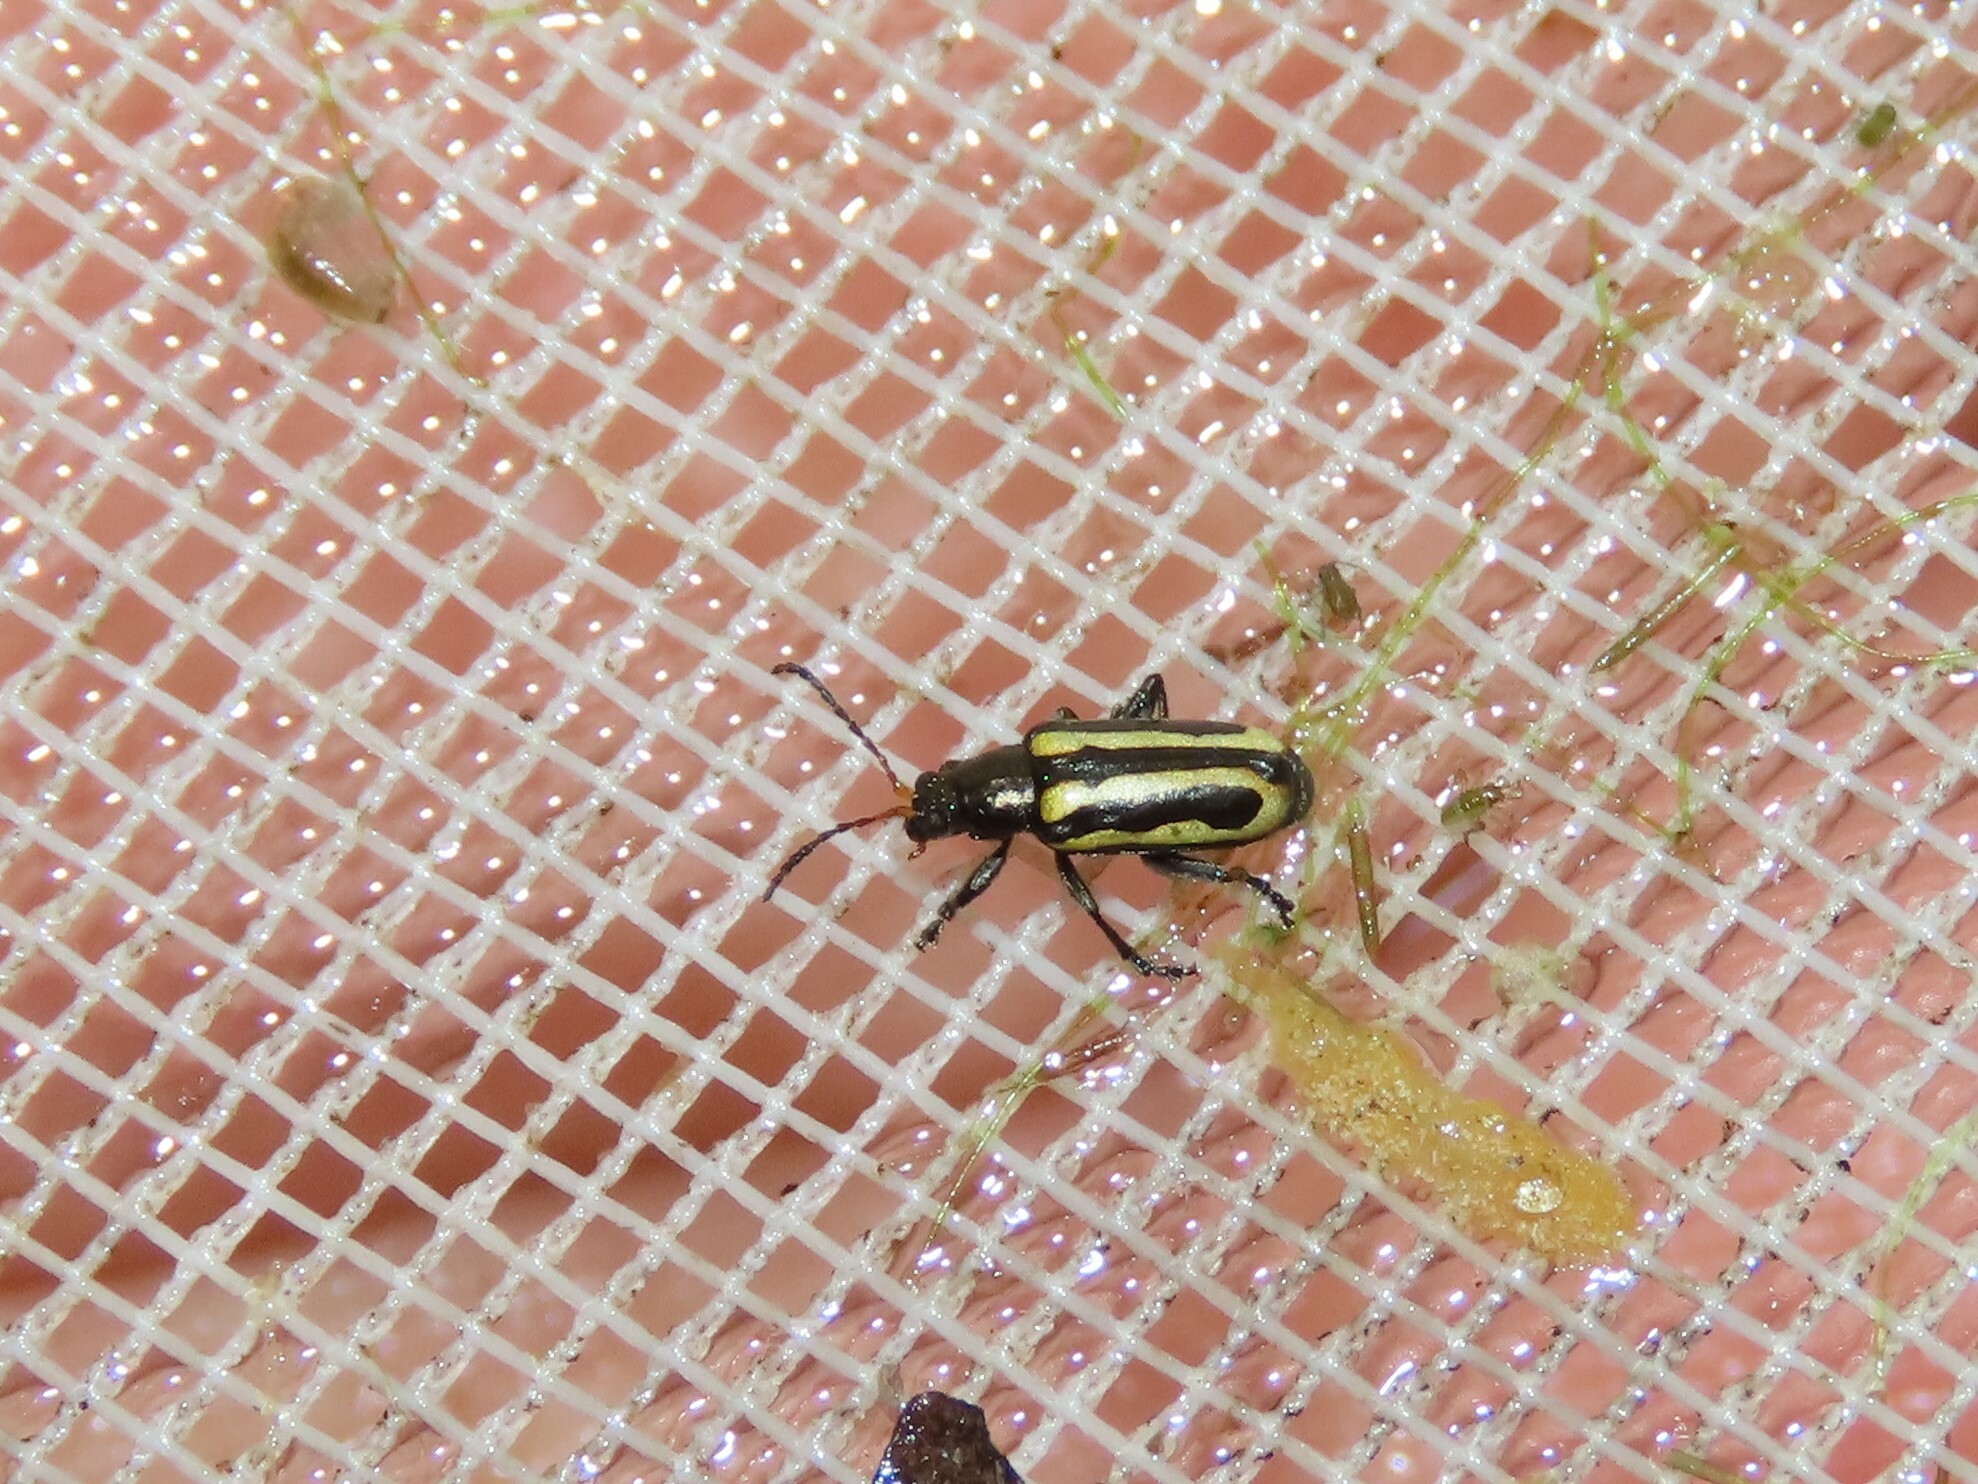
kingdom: Animalia
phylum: Arthropoda
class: Insecta
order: Coleoptera
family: Chrysomelidae
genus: Agasicles
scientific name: Agasicles hygrophila
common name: Alligatorweed flea beetle
